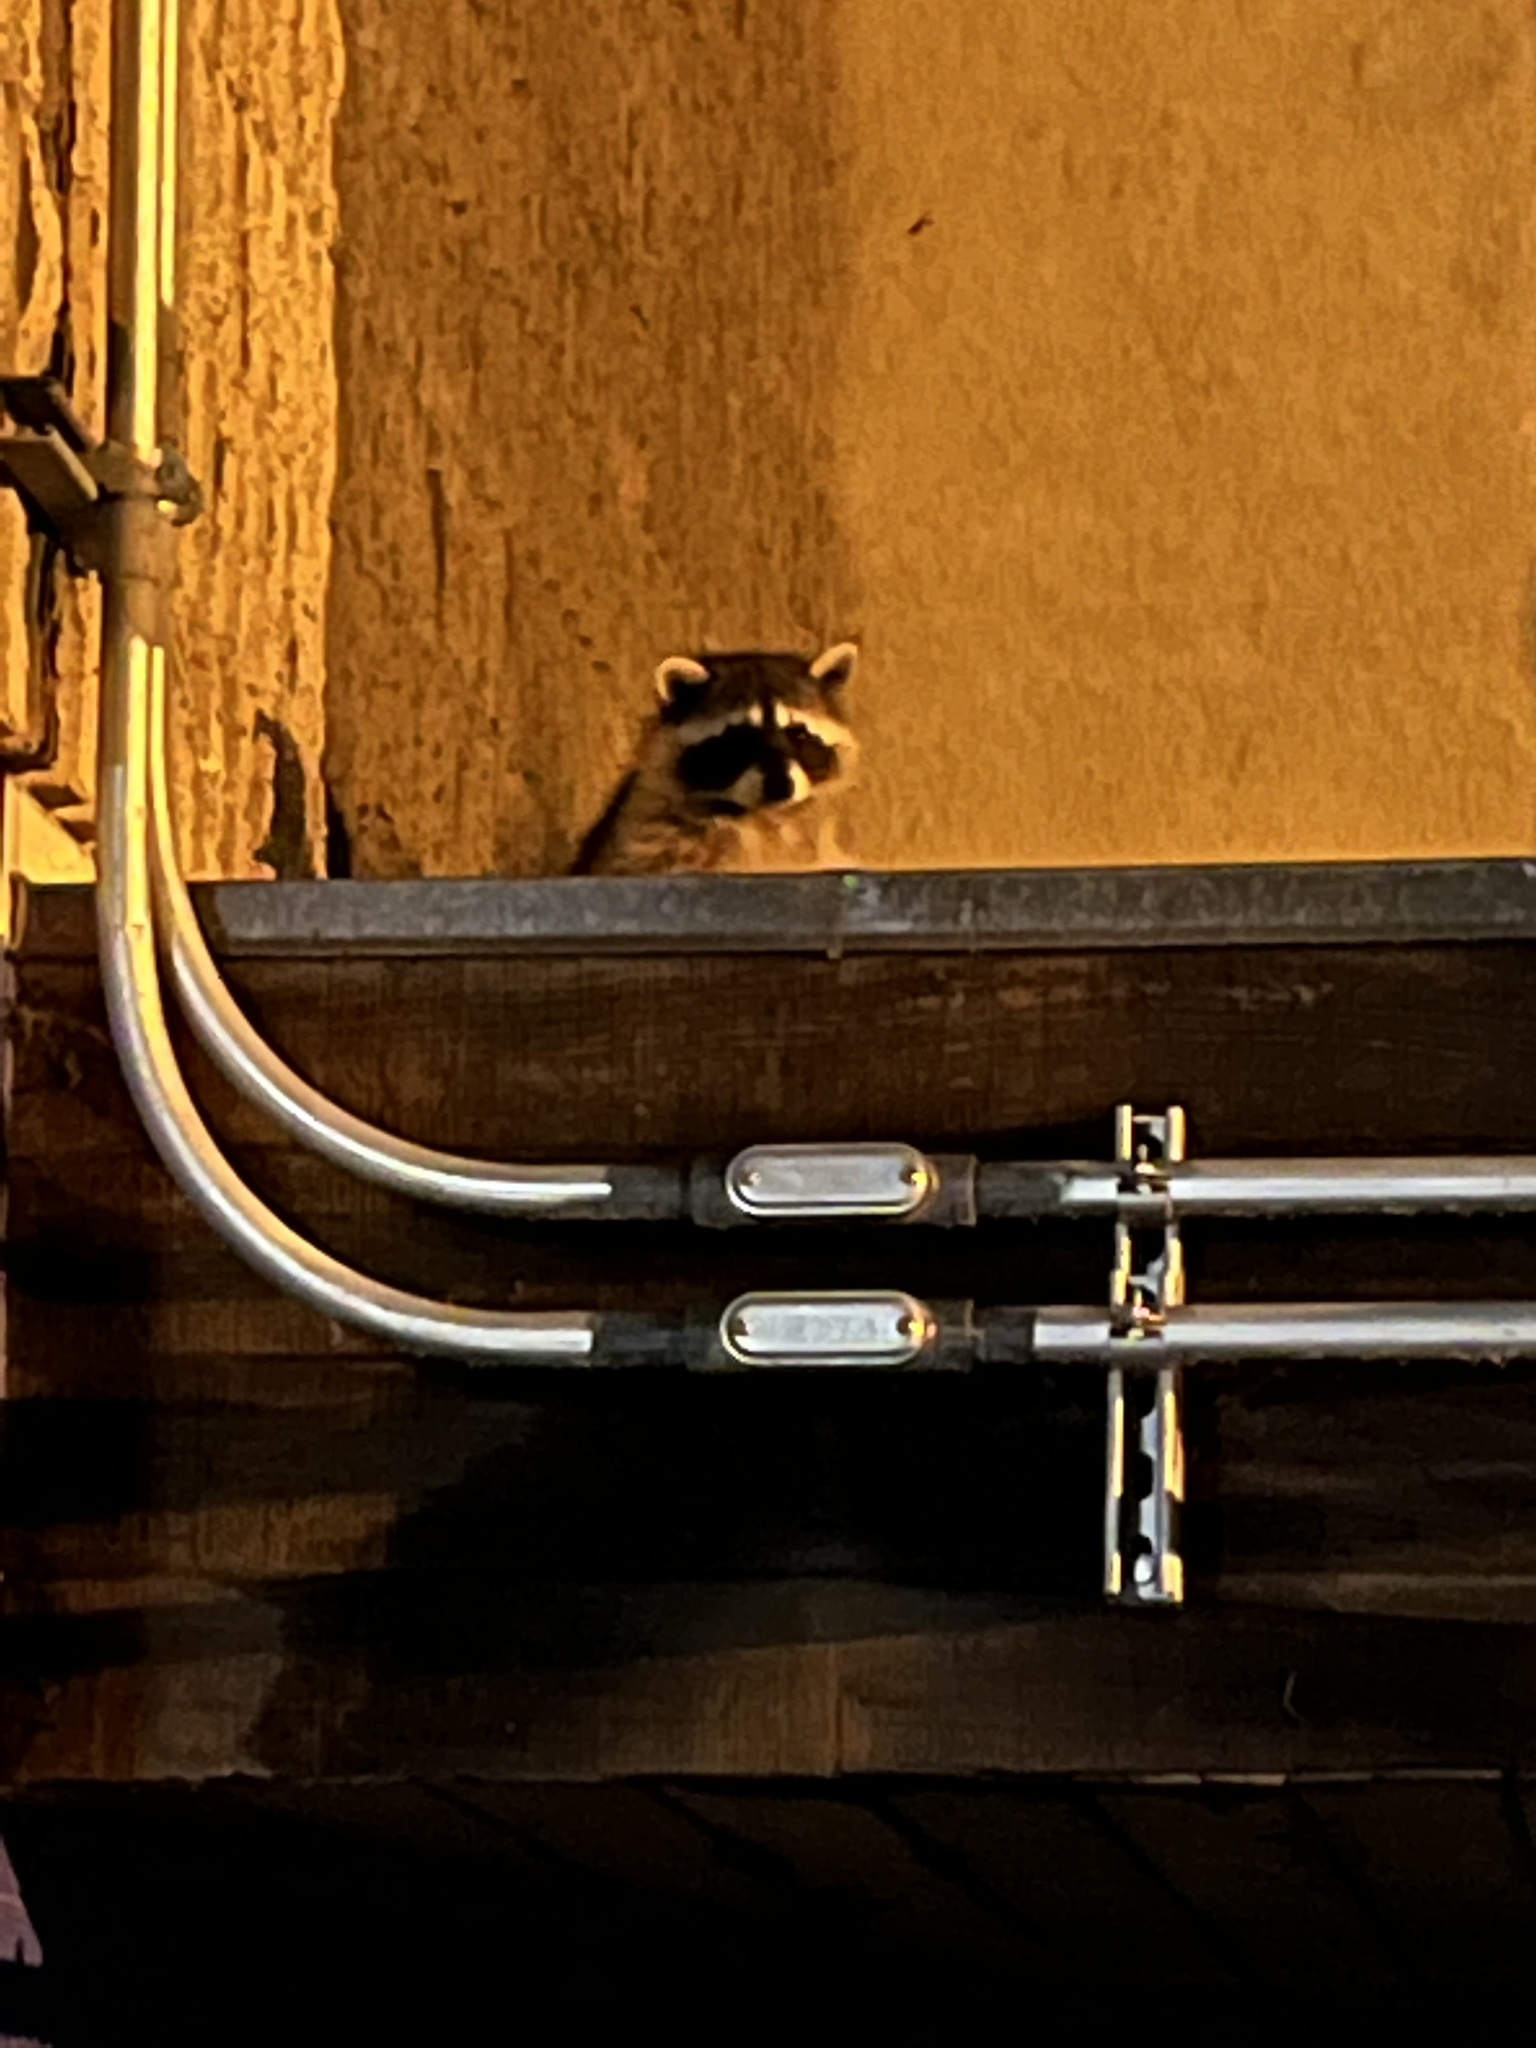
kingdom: Animalia
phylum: Chordata
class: Mammalia
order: Carnivora
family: Procyonidae
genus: Procyon
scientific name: Procyon lotor
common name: Raccoon
